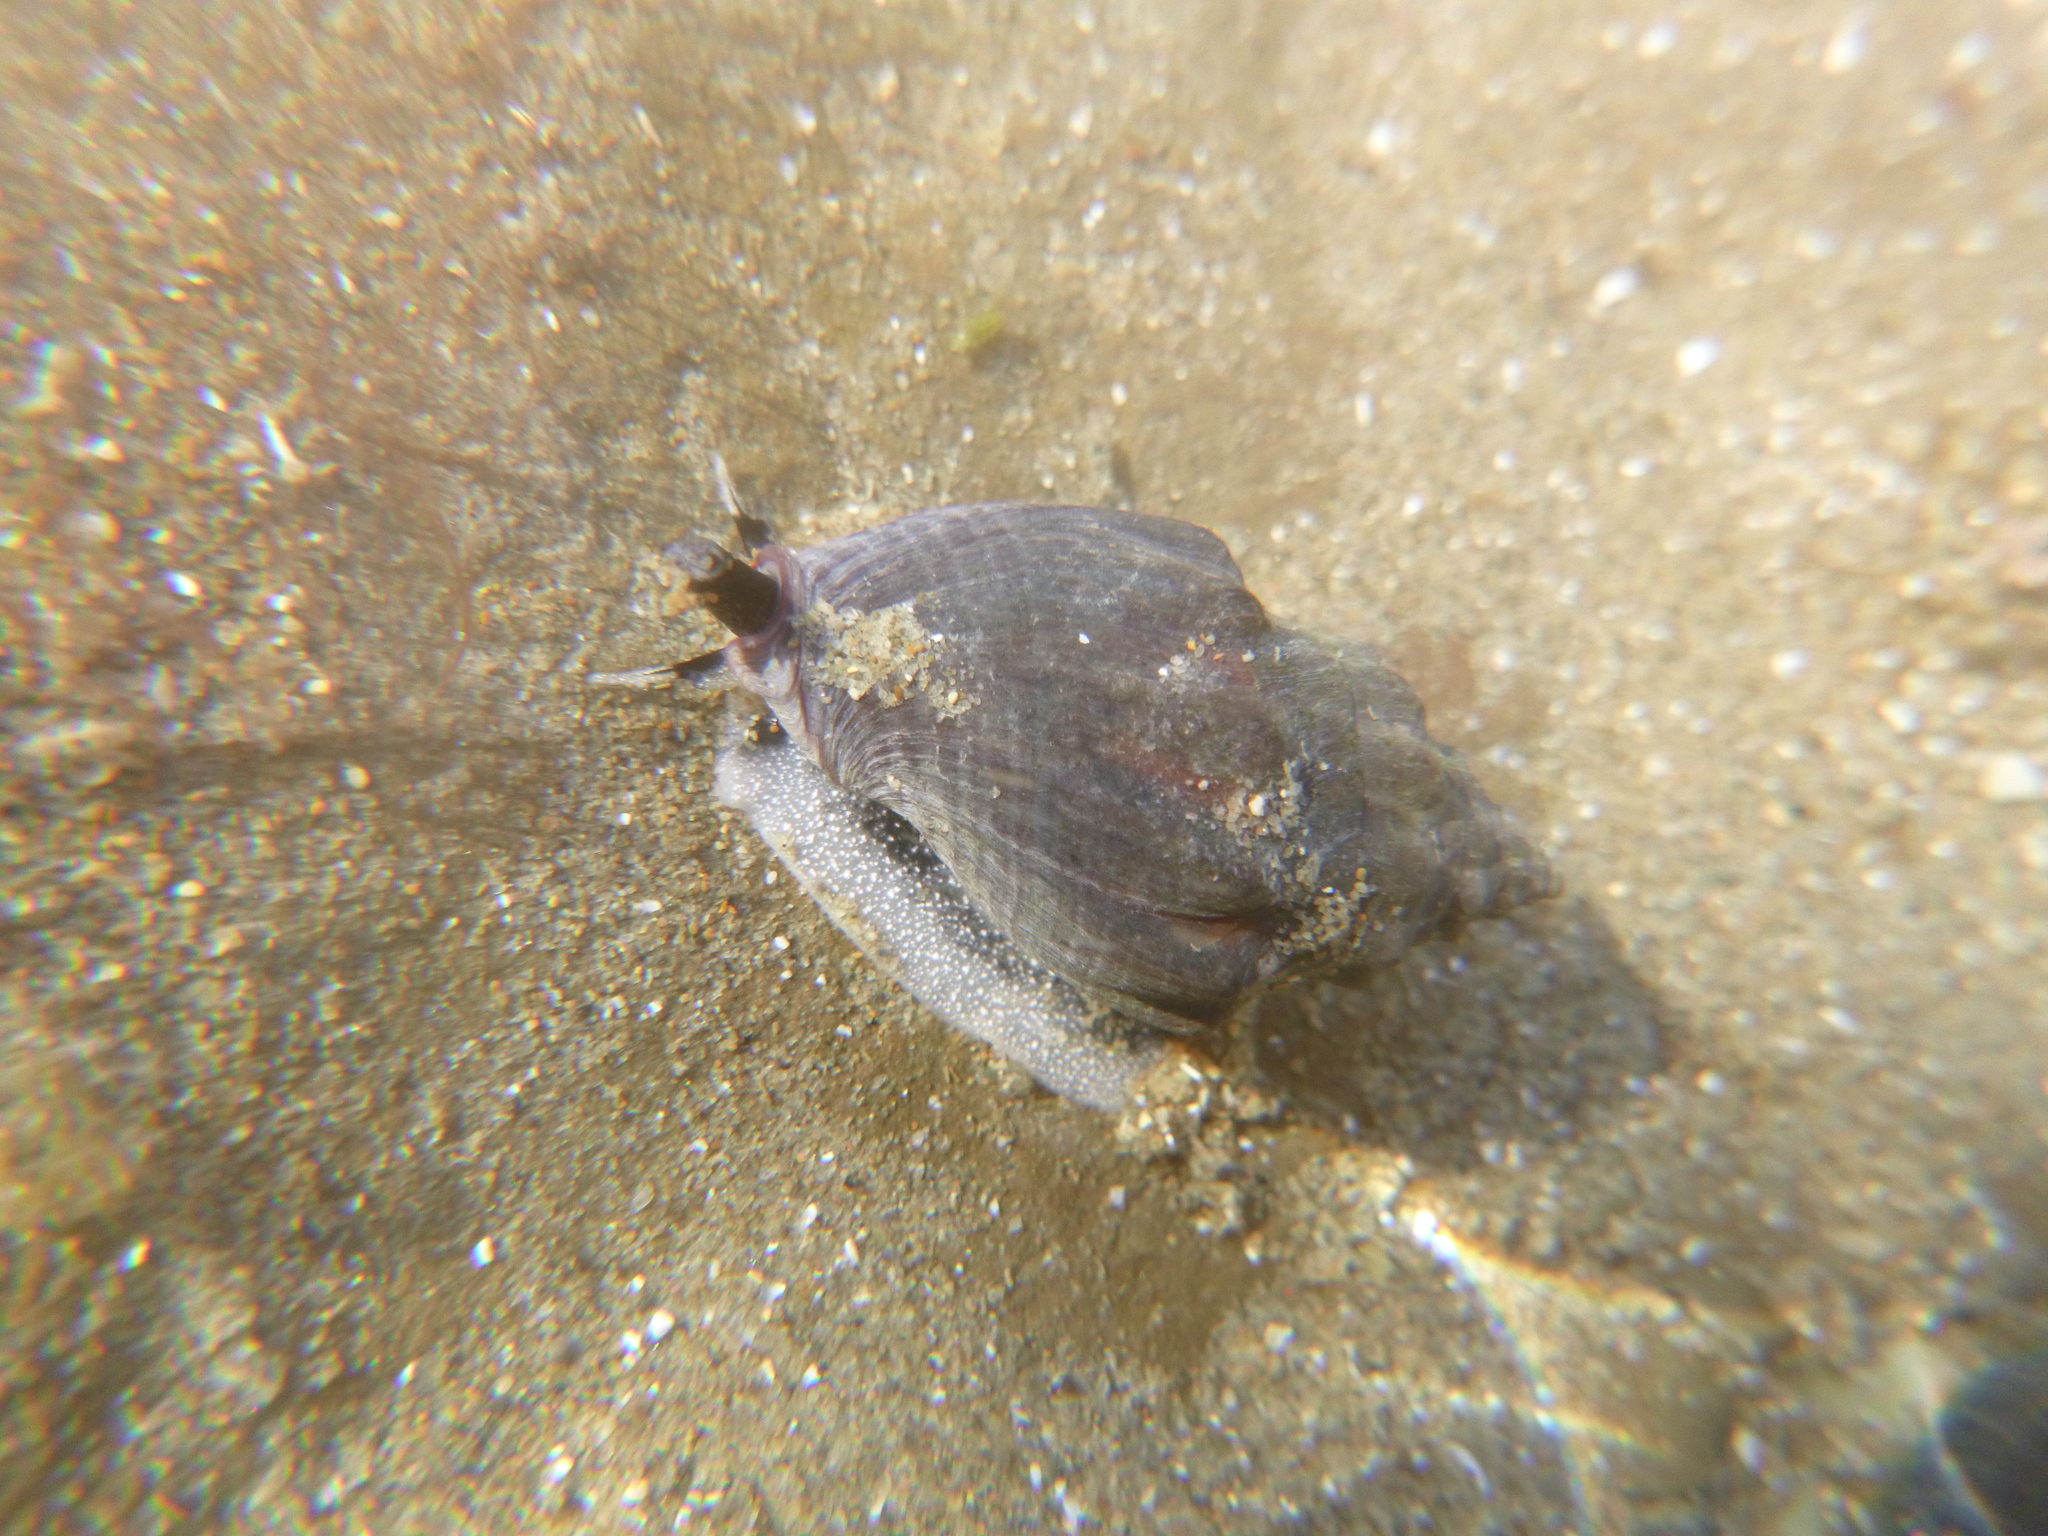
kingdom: Animalia
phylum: Mollusca
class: Gastropoda
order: Neogastropoda
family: Cominellidae
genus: Cominella
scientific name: Cominella glandiformis
